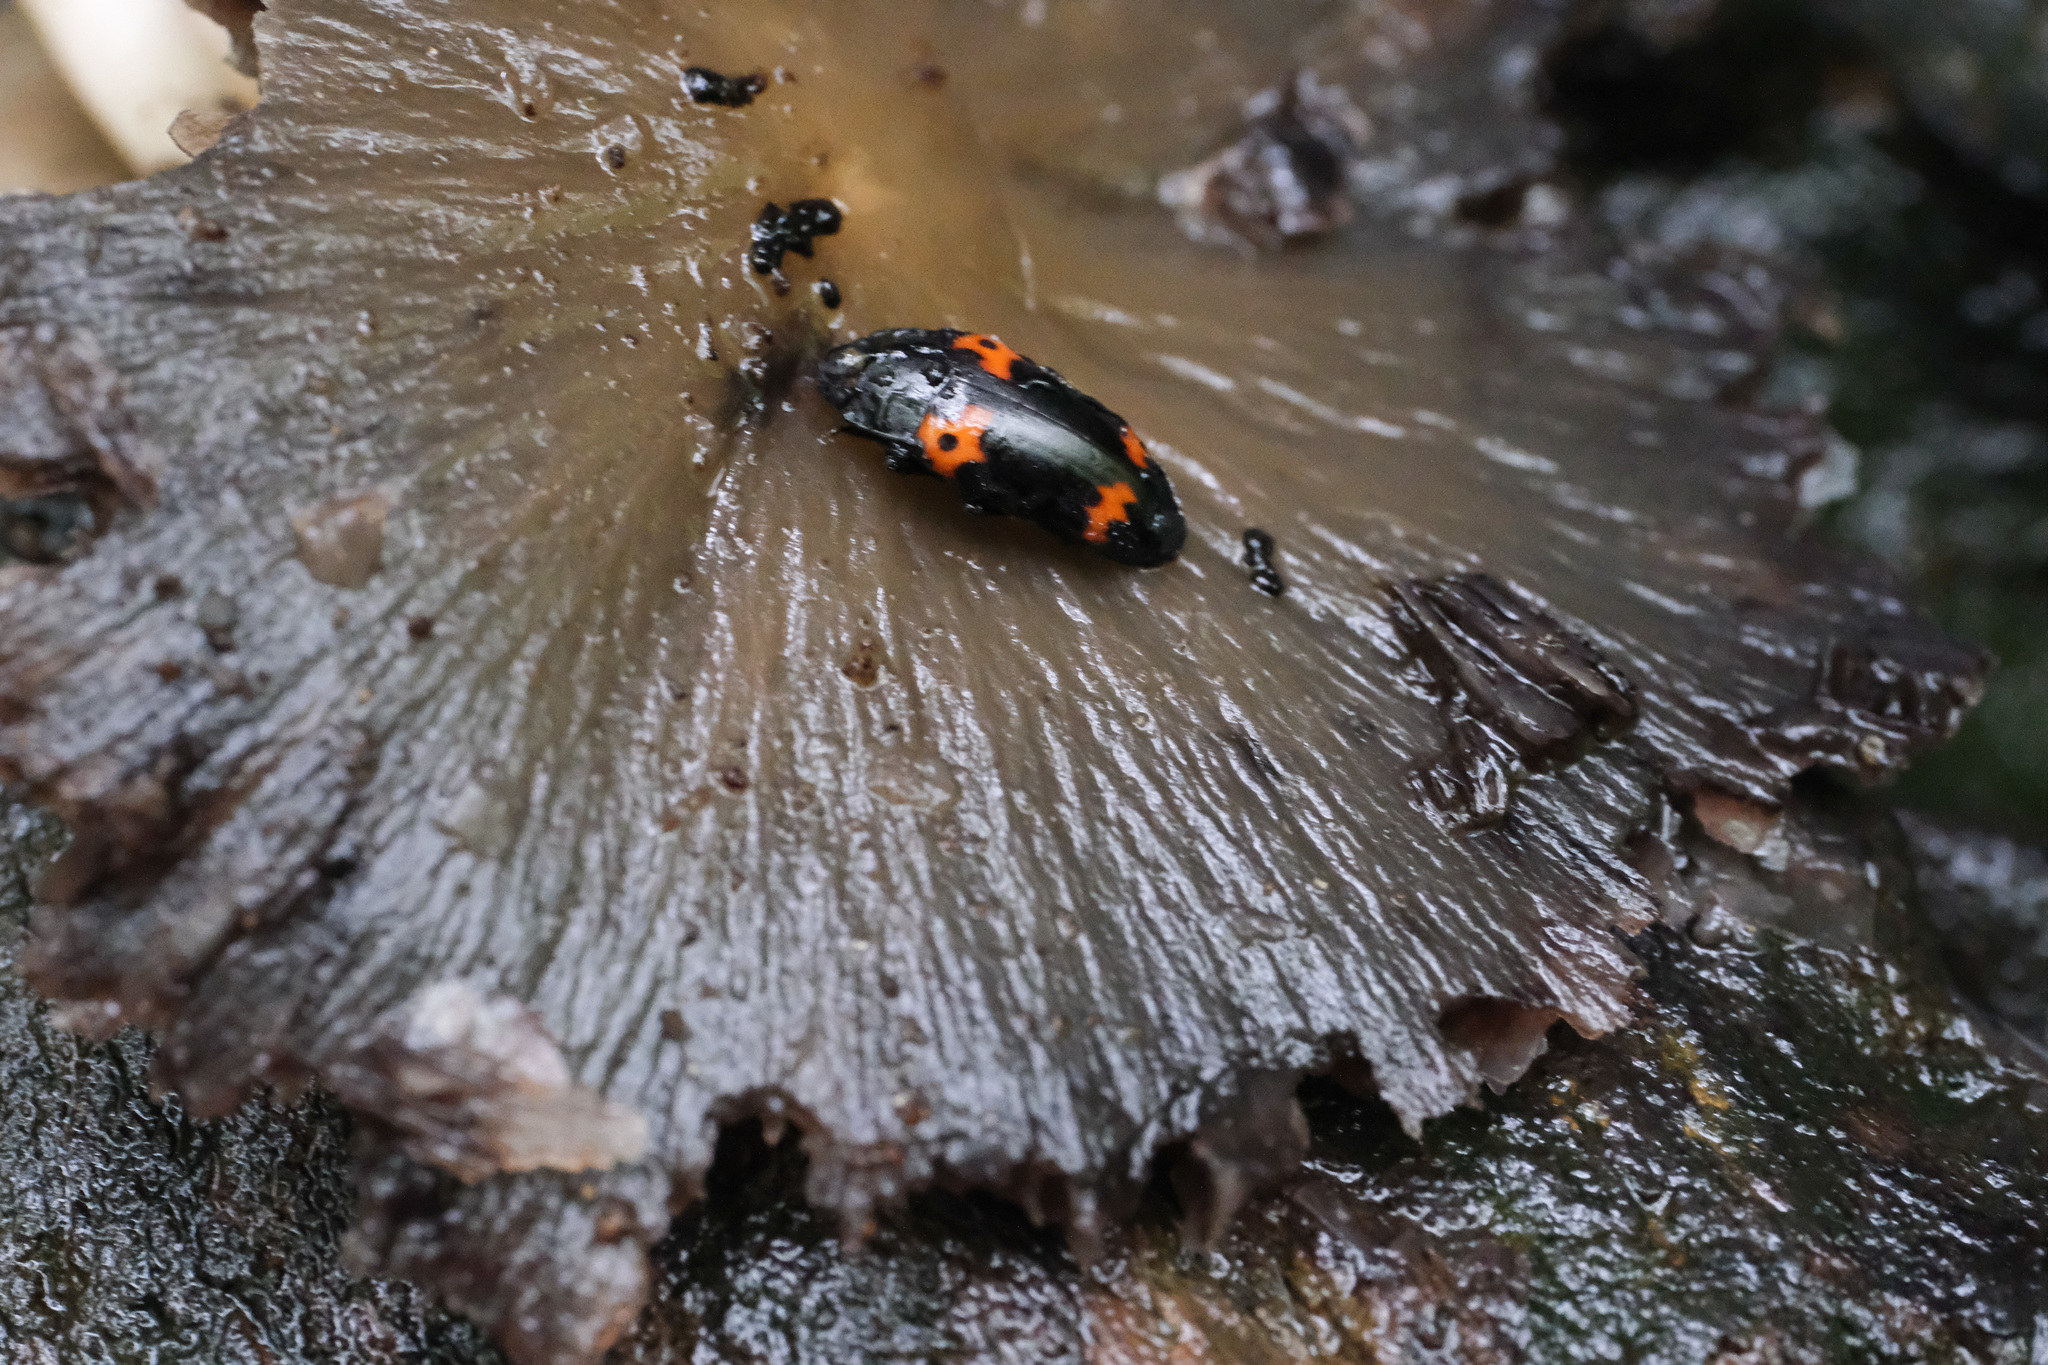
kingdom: Animalia
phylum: Arthropoda
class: Insecta
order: Coleoptera
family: Erotylidae
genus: Megalodacne
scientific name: Megalodacne
